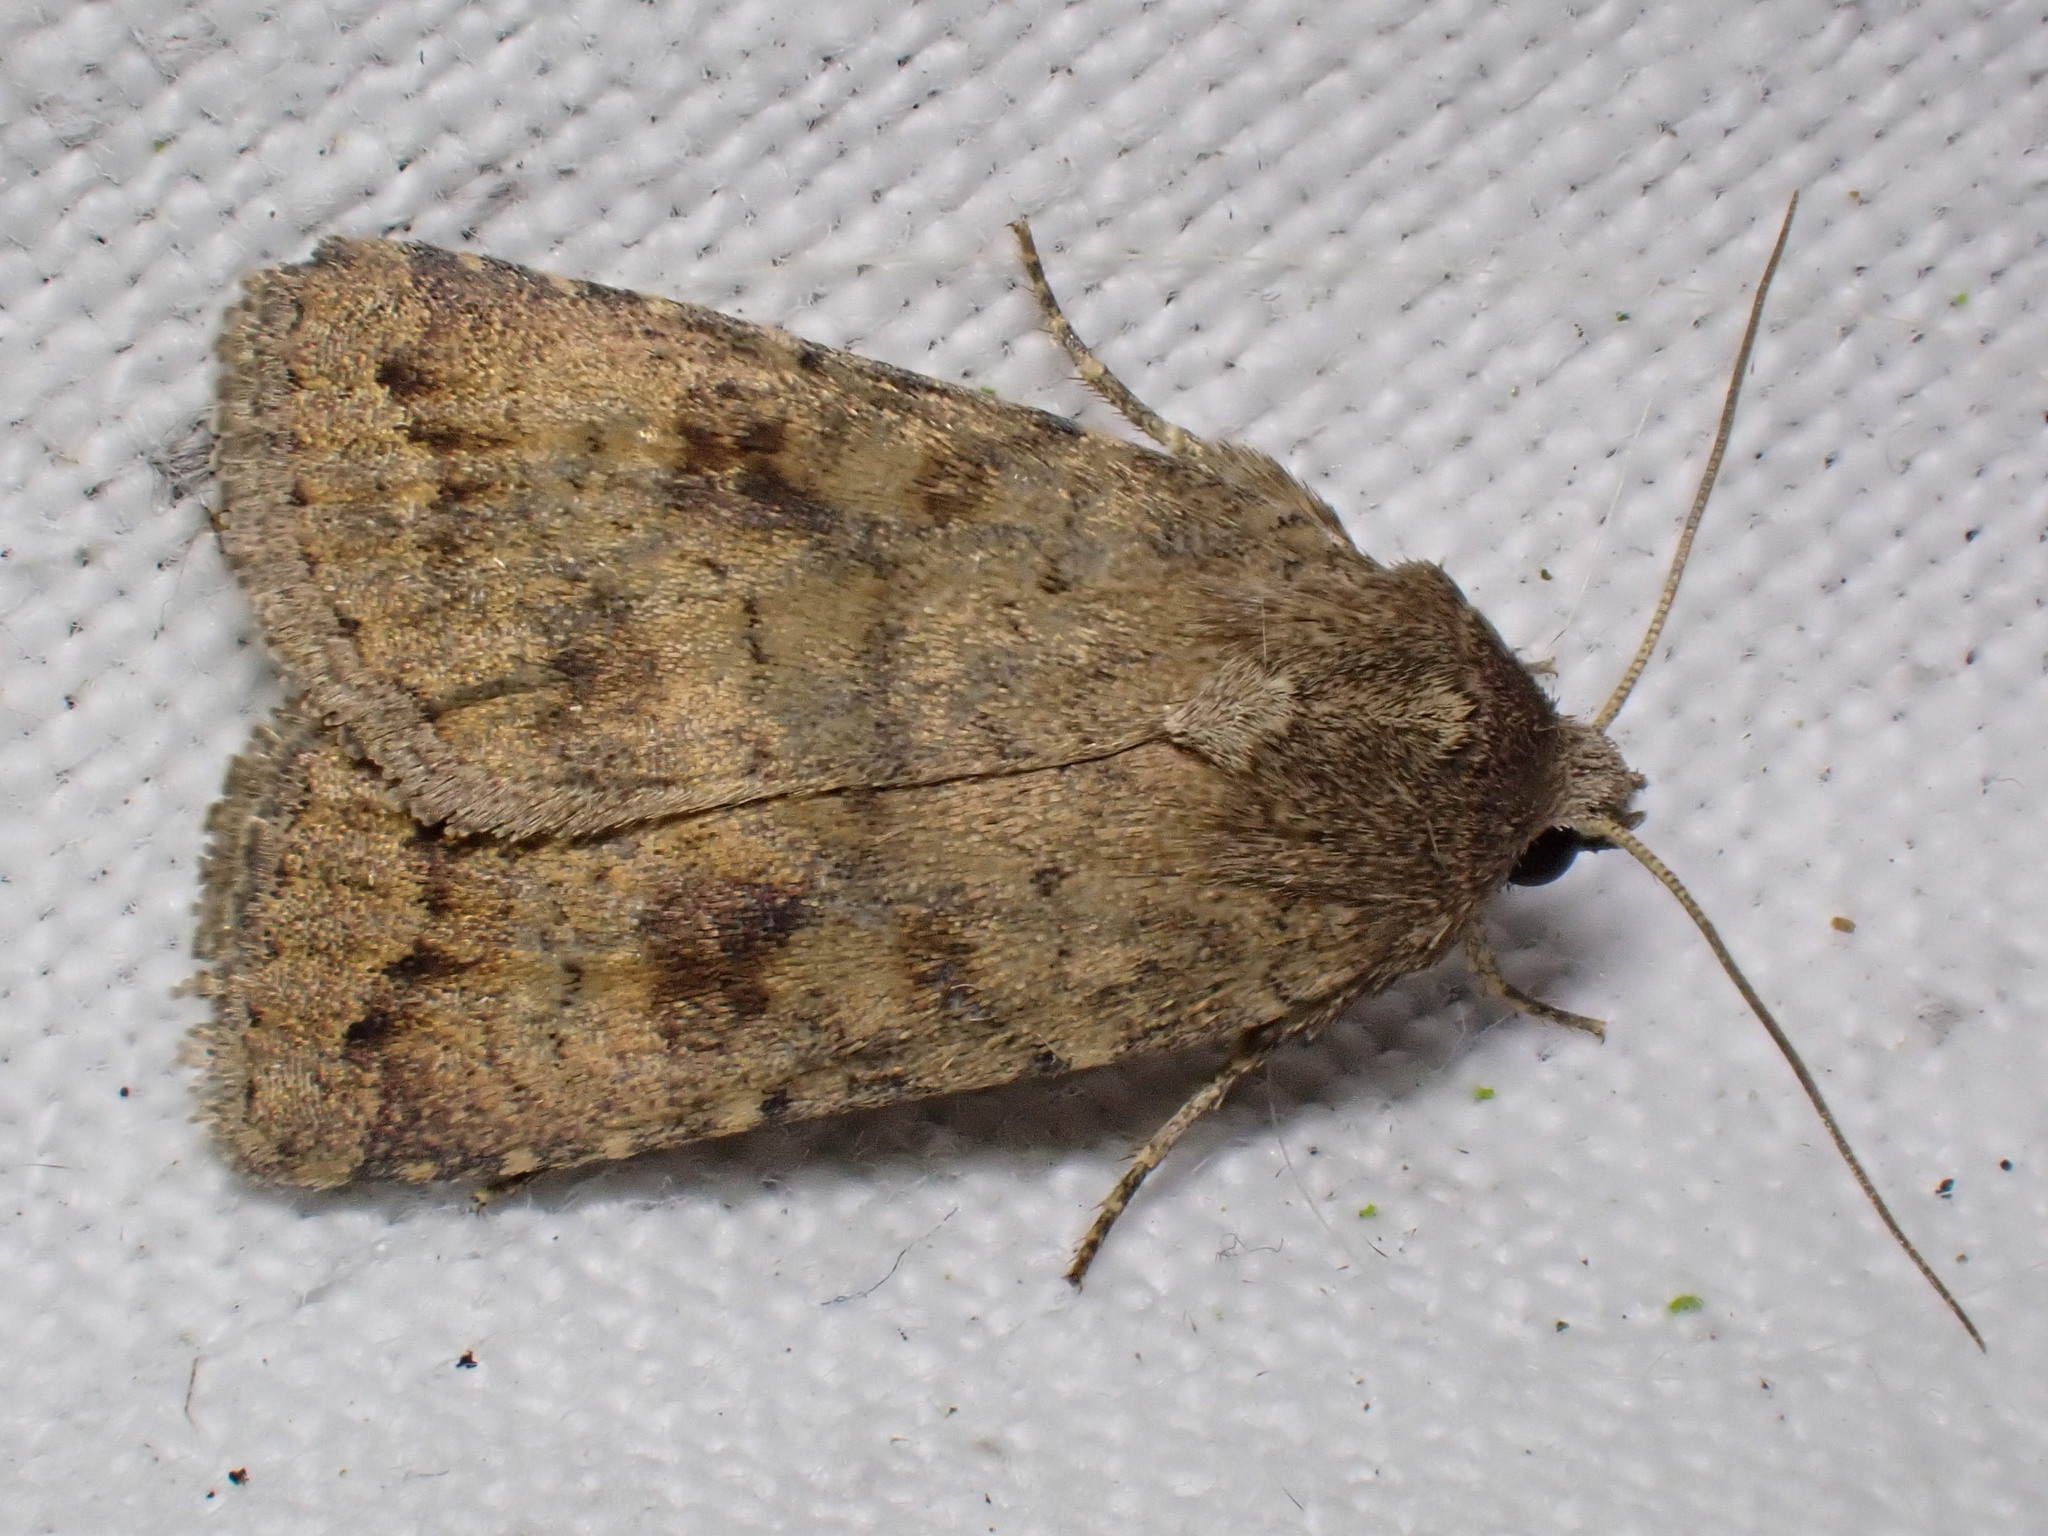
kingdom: Animalia
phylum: Arthropoda
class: Insecta
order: Lepidoptera
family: Noctuidae
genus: Caradrina
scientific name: Caradrina morpheus
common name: Mottled rustic
